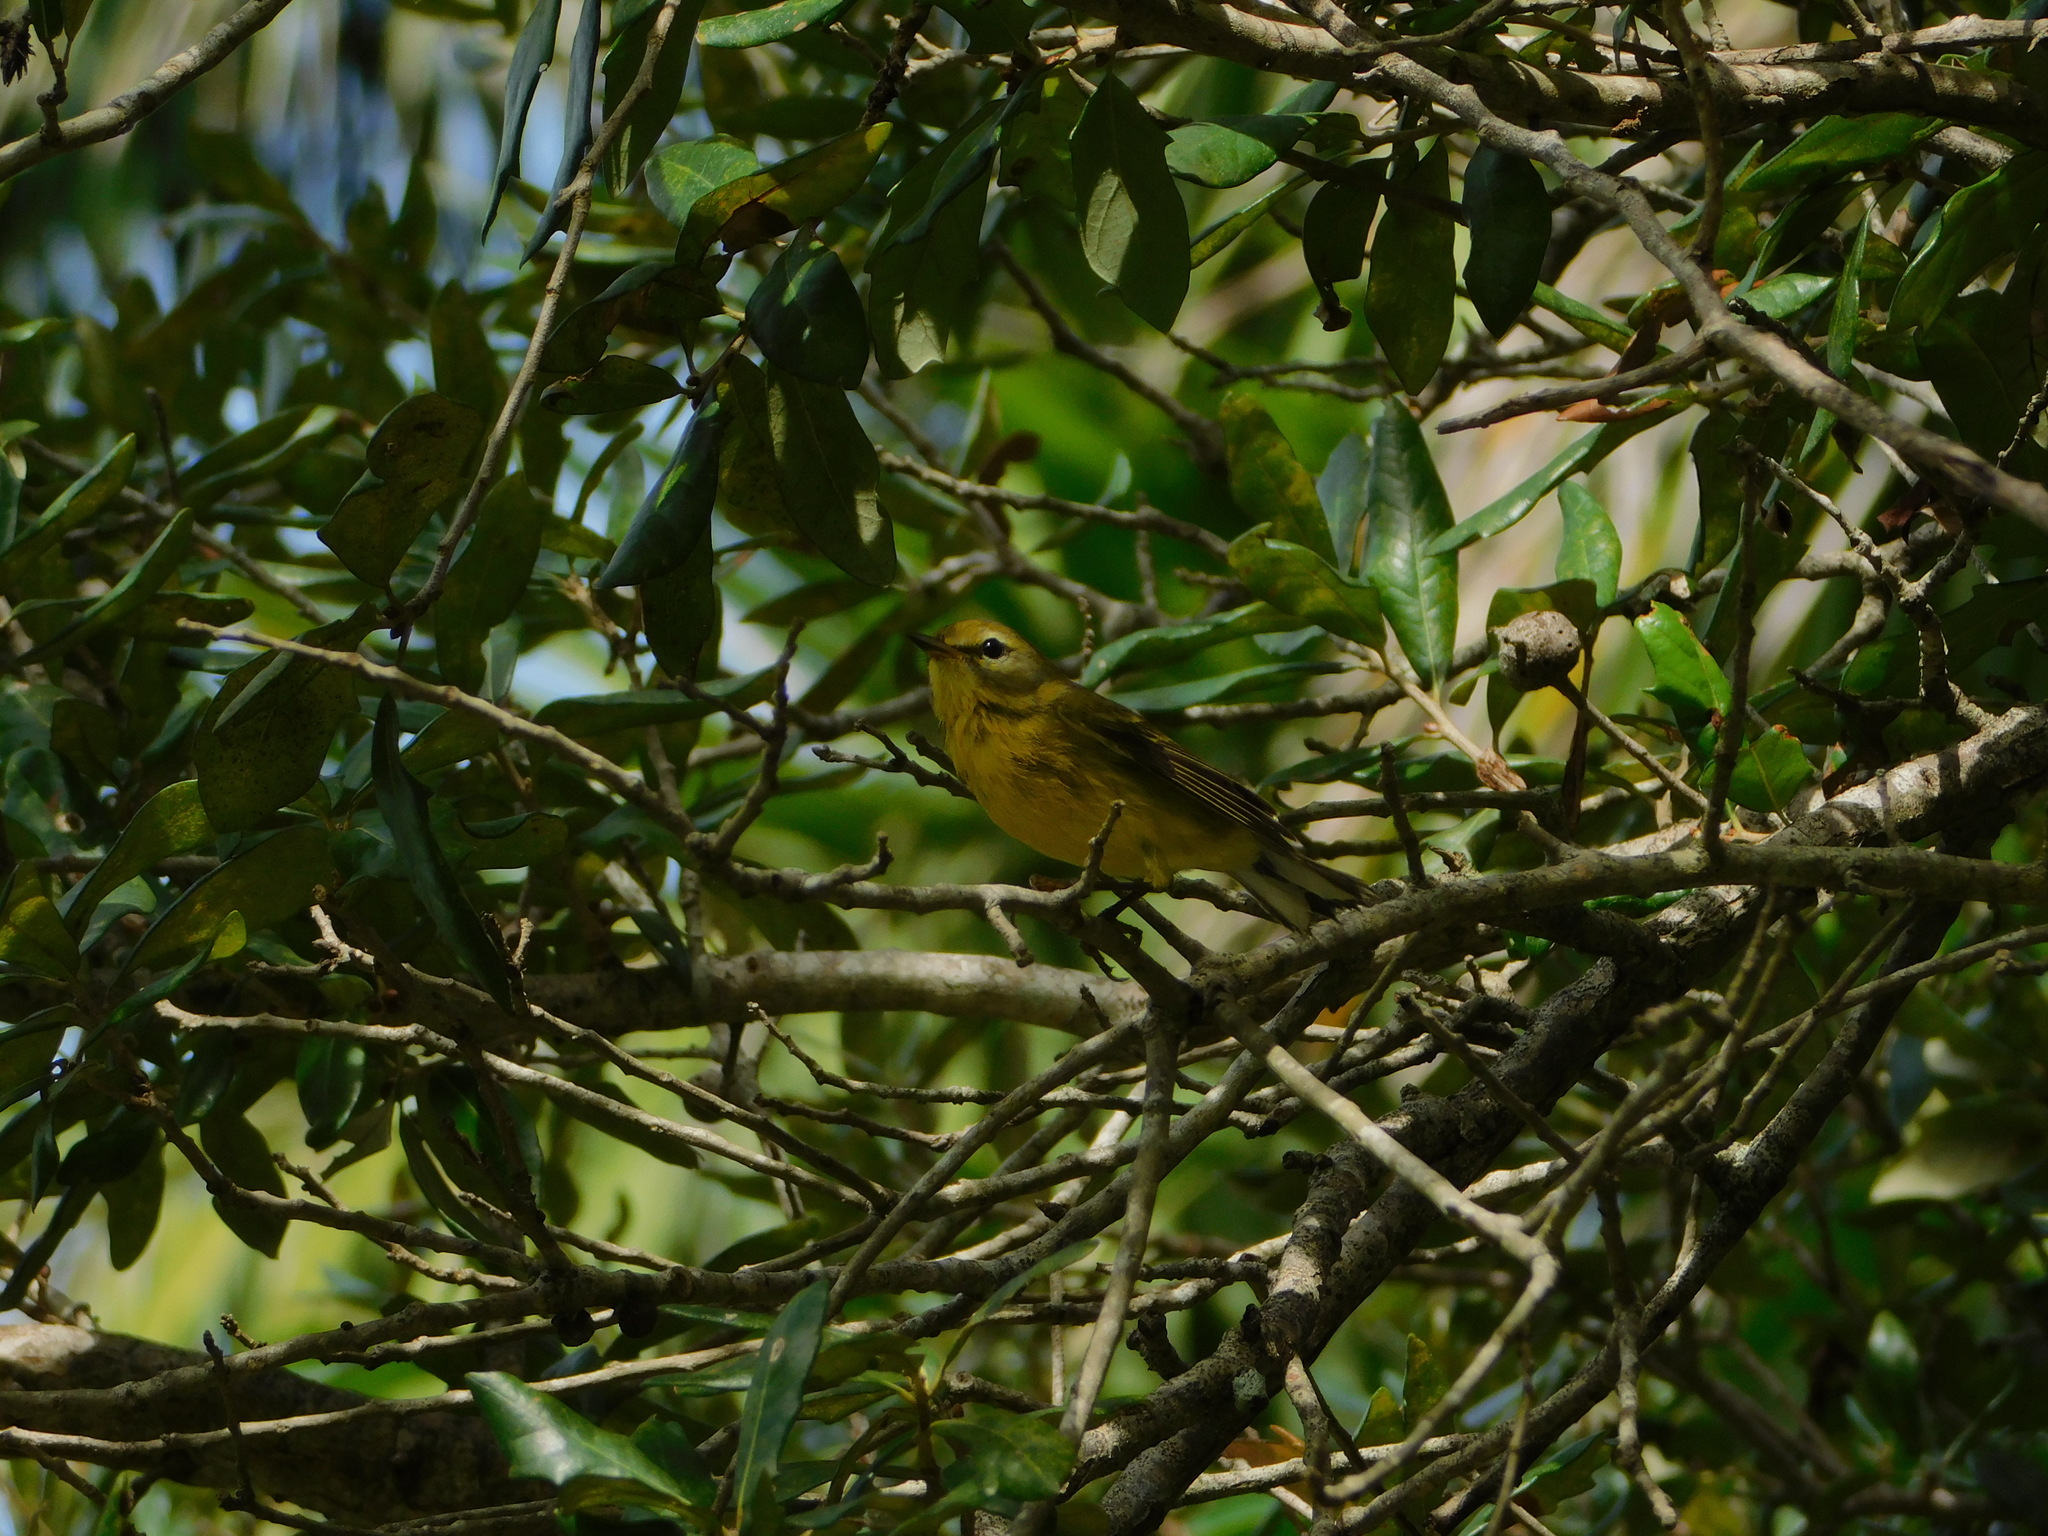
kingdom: Animalia
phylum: Chordata
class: Aves
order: Passeriformes
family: Parulidae
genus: Setophaga
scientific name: Setophaga discolor
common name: Prairie warbler
